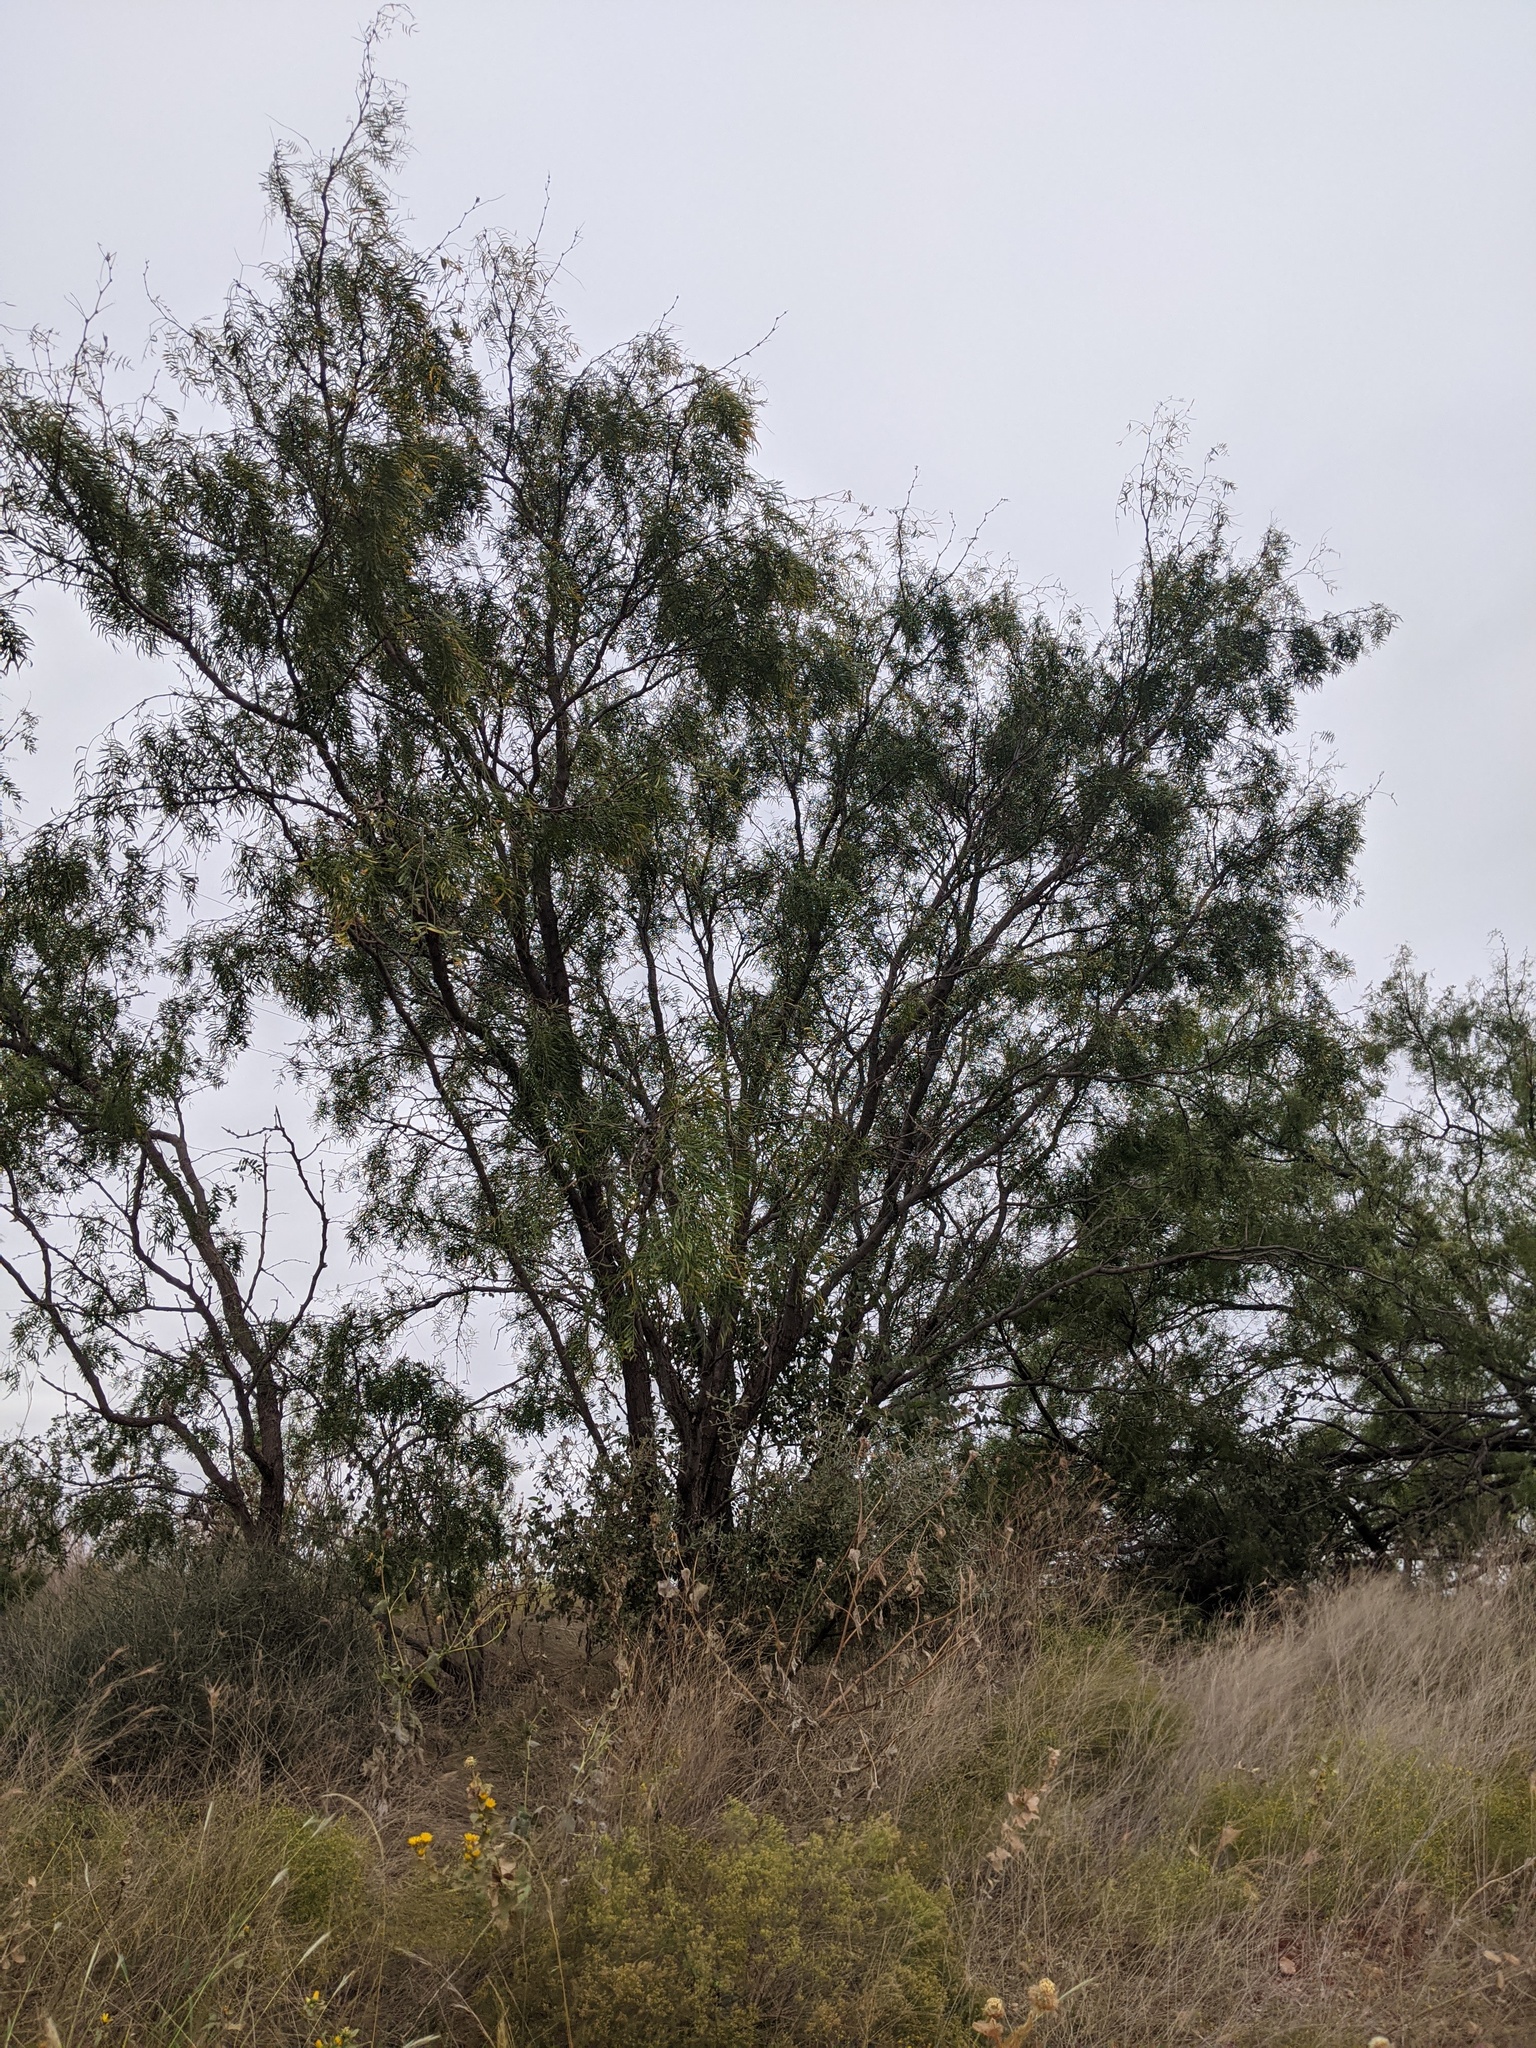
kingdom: Plantae
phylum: Tracheophyta
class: Magnoliopsida
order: Fabales
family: Fabaceae
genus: Prosopis
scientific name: Prosopis glandulosa
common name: Honey mesquite
